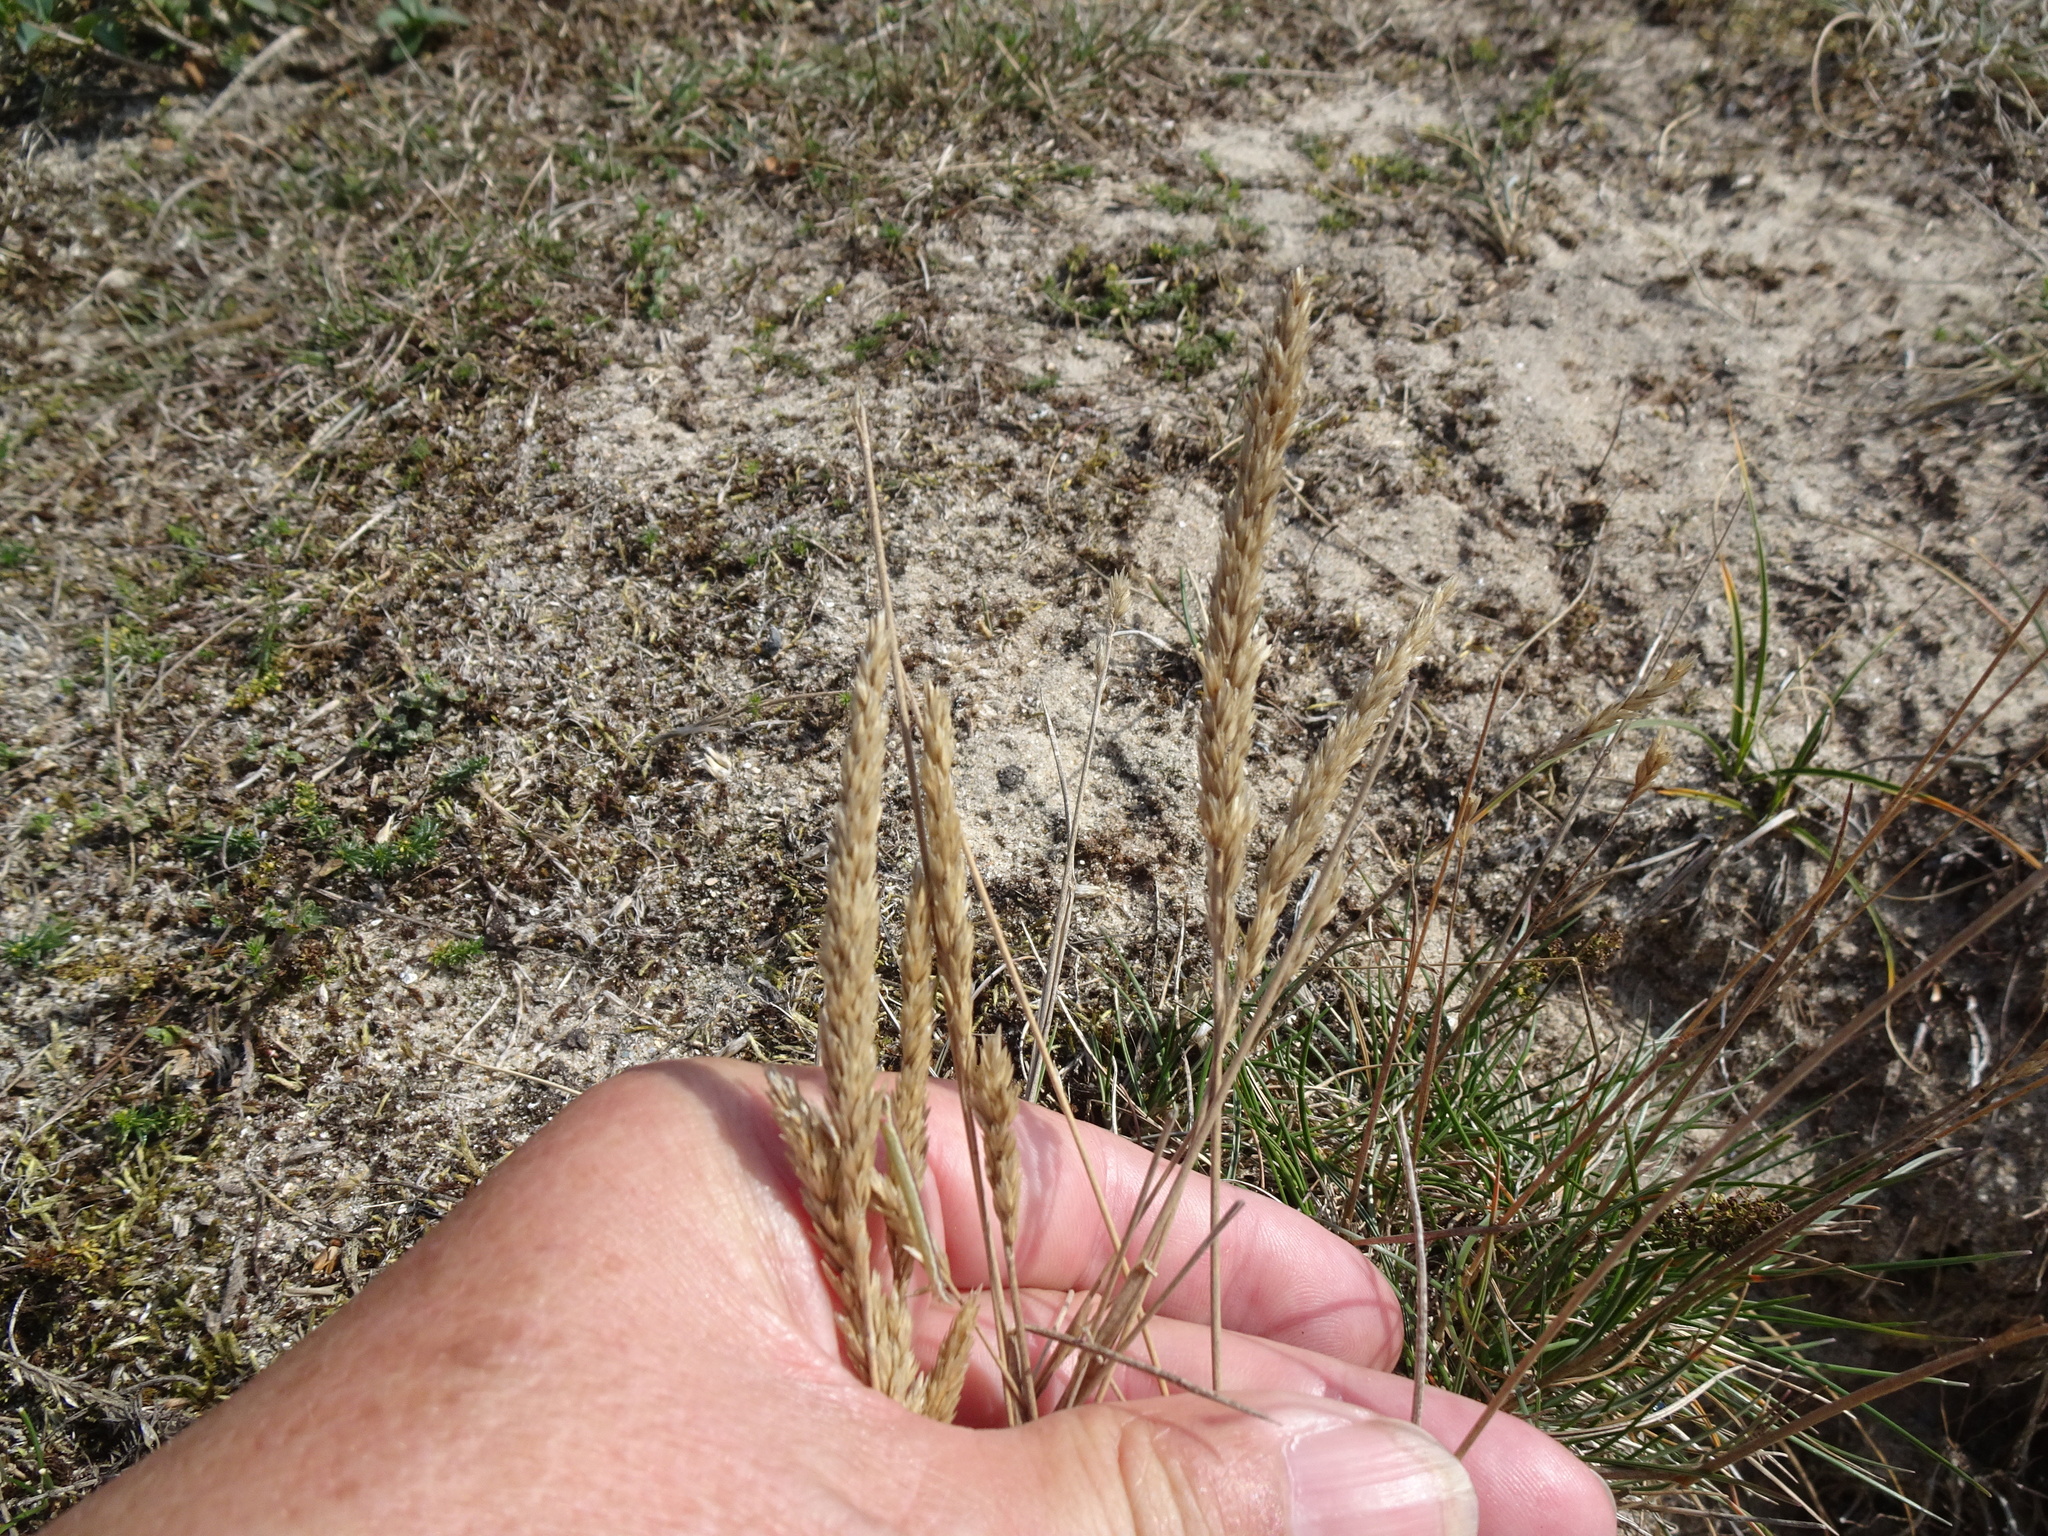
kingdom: Plantae
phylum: Tracheophyta
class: Liliopsida
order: Poales
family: Poaceae
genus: Calamagrostis
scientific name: Calamagrostis arenaria
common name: European beachgrass
